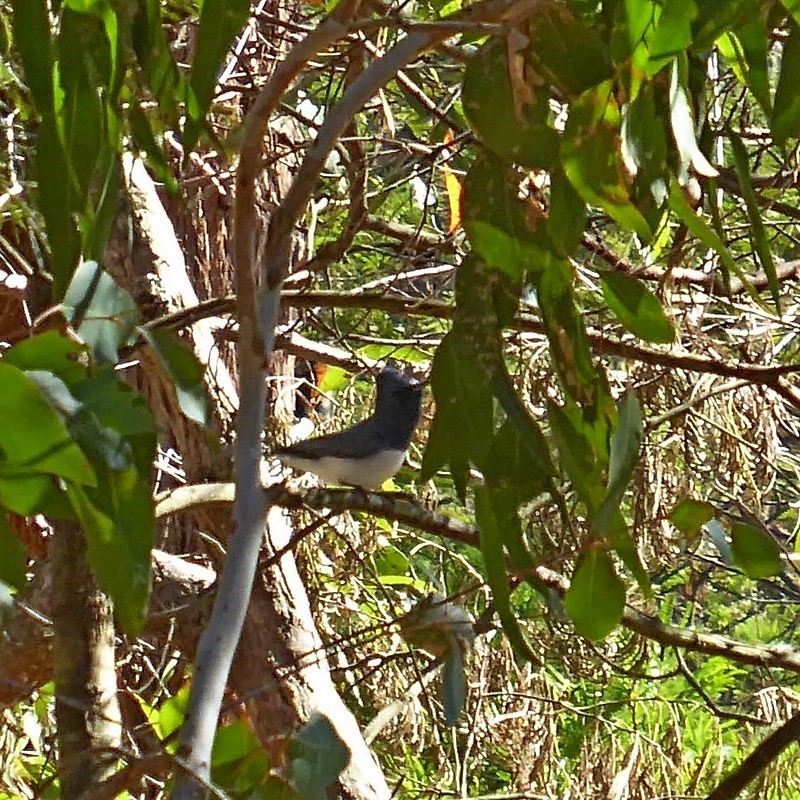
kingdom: Animalia
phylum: Chordata
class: Aves
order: Passeriformes
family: Monarchidae
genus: Myiagra
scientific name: Myiagra rubecula
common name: Leaden flycatcher
